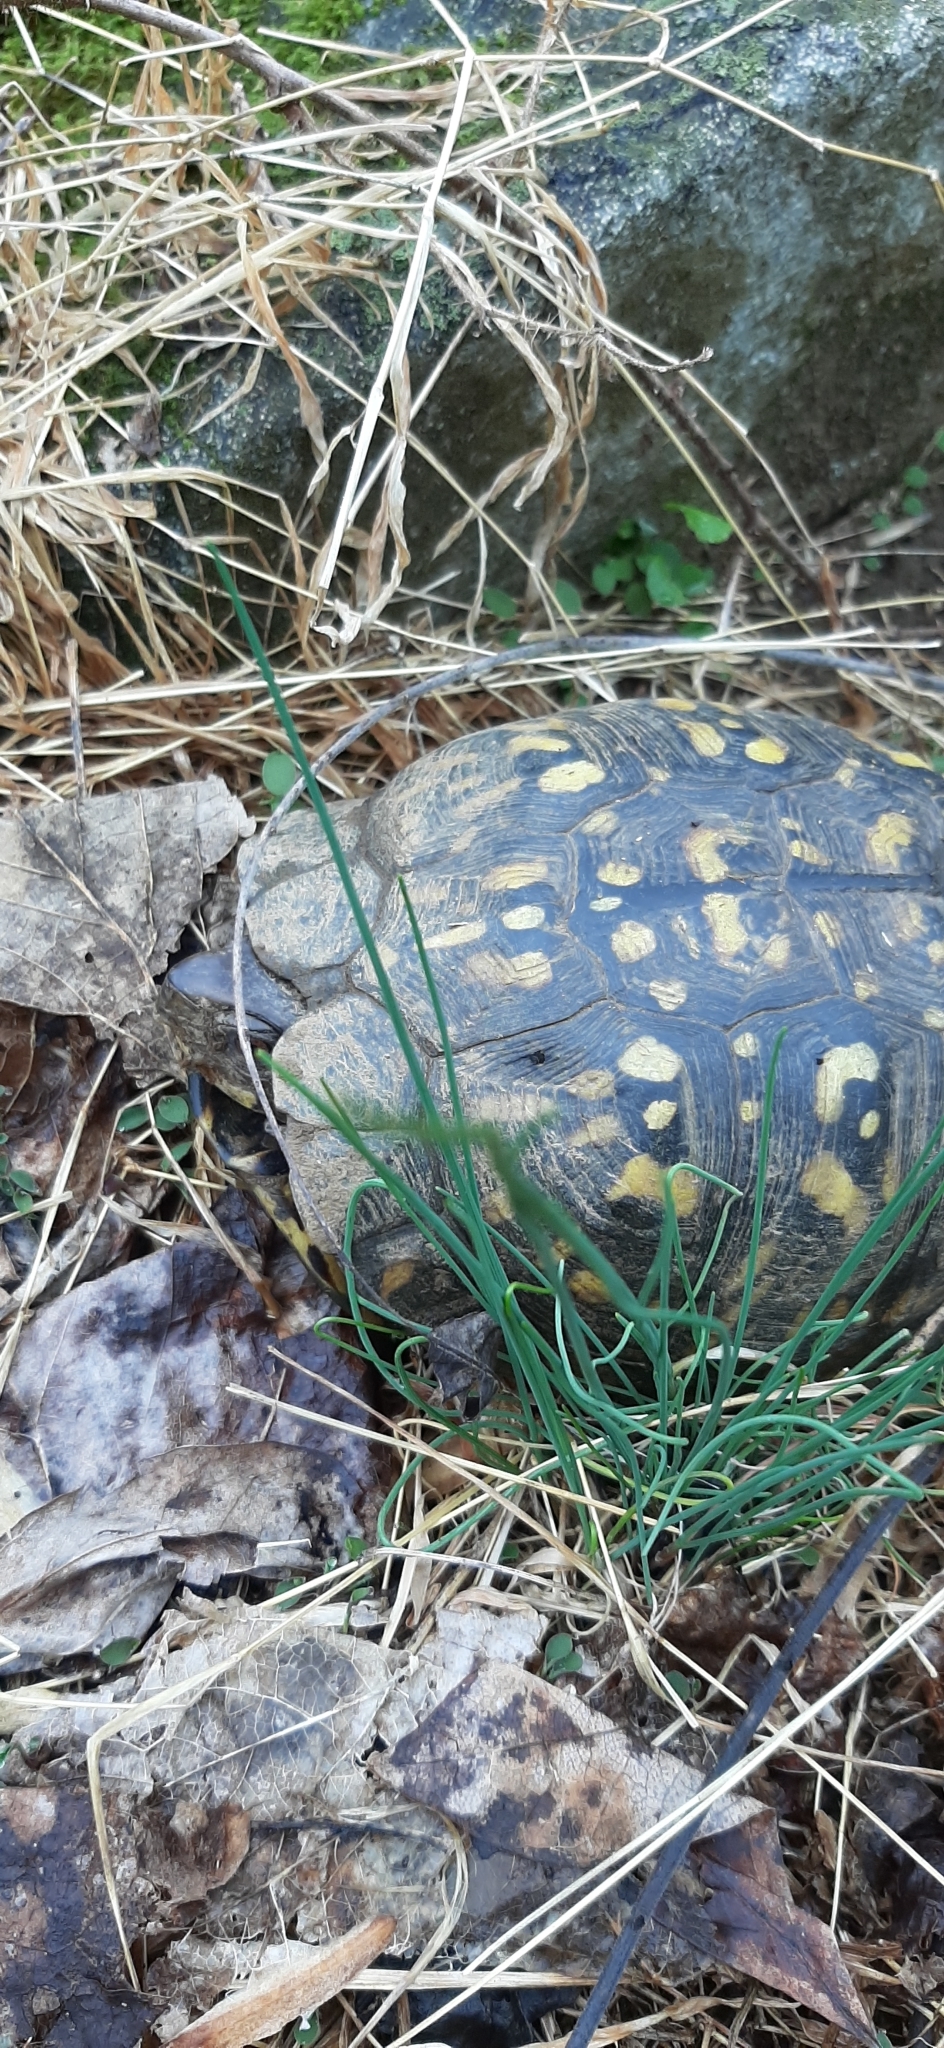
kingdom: Animalia
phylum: Chordata
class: Testudines
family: Emydidae
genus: Terrapene
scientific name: Terrapene carolina
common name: Common box turtle
